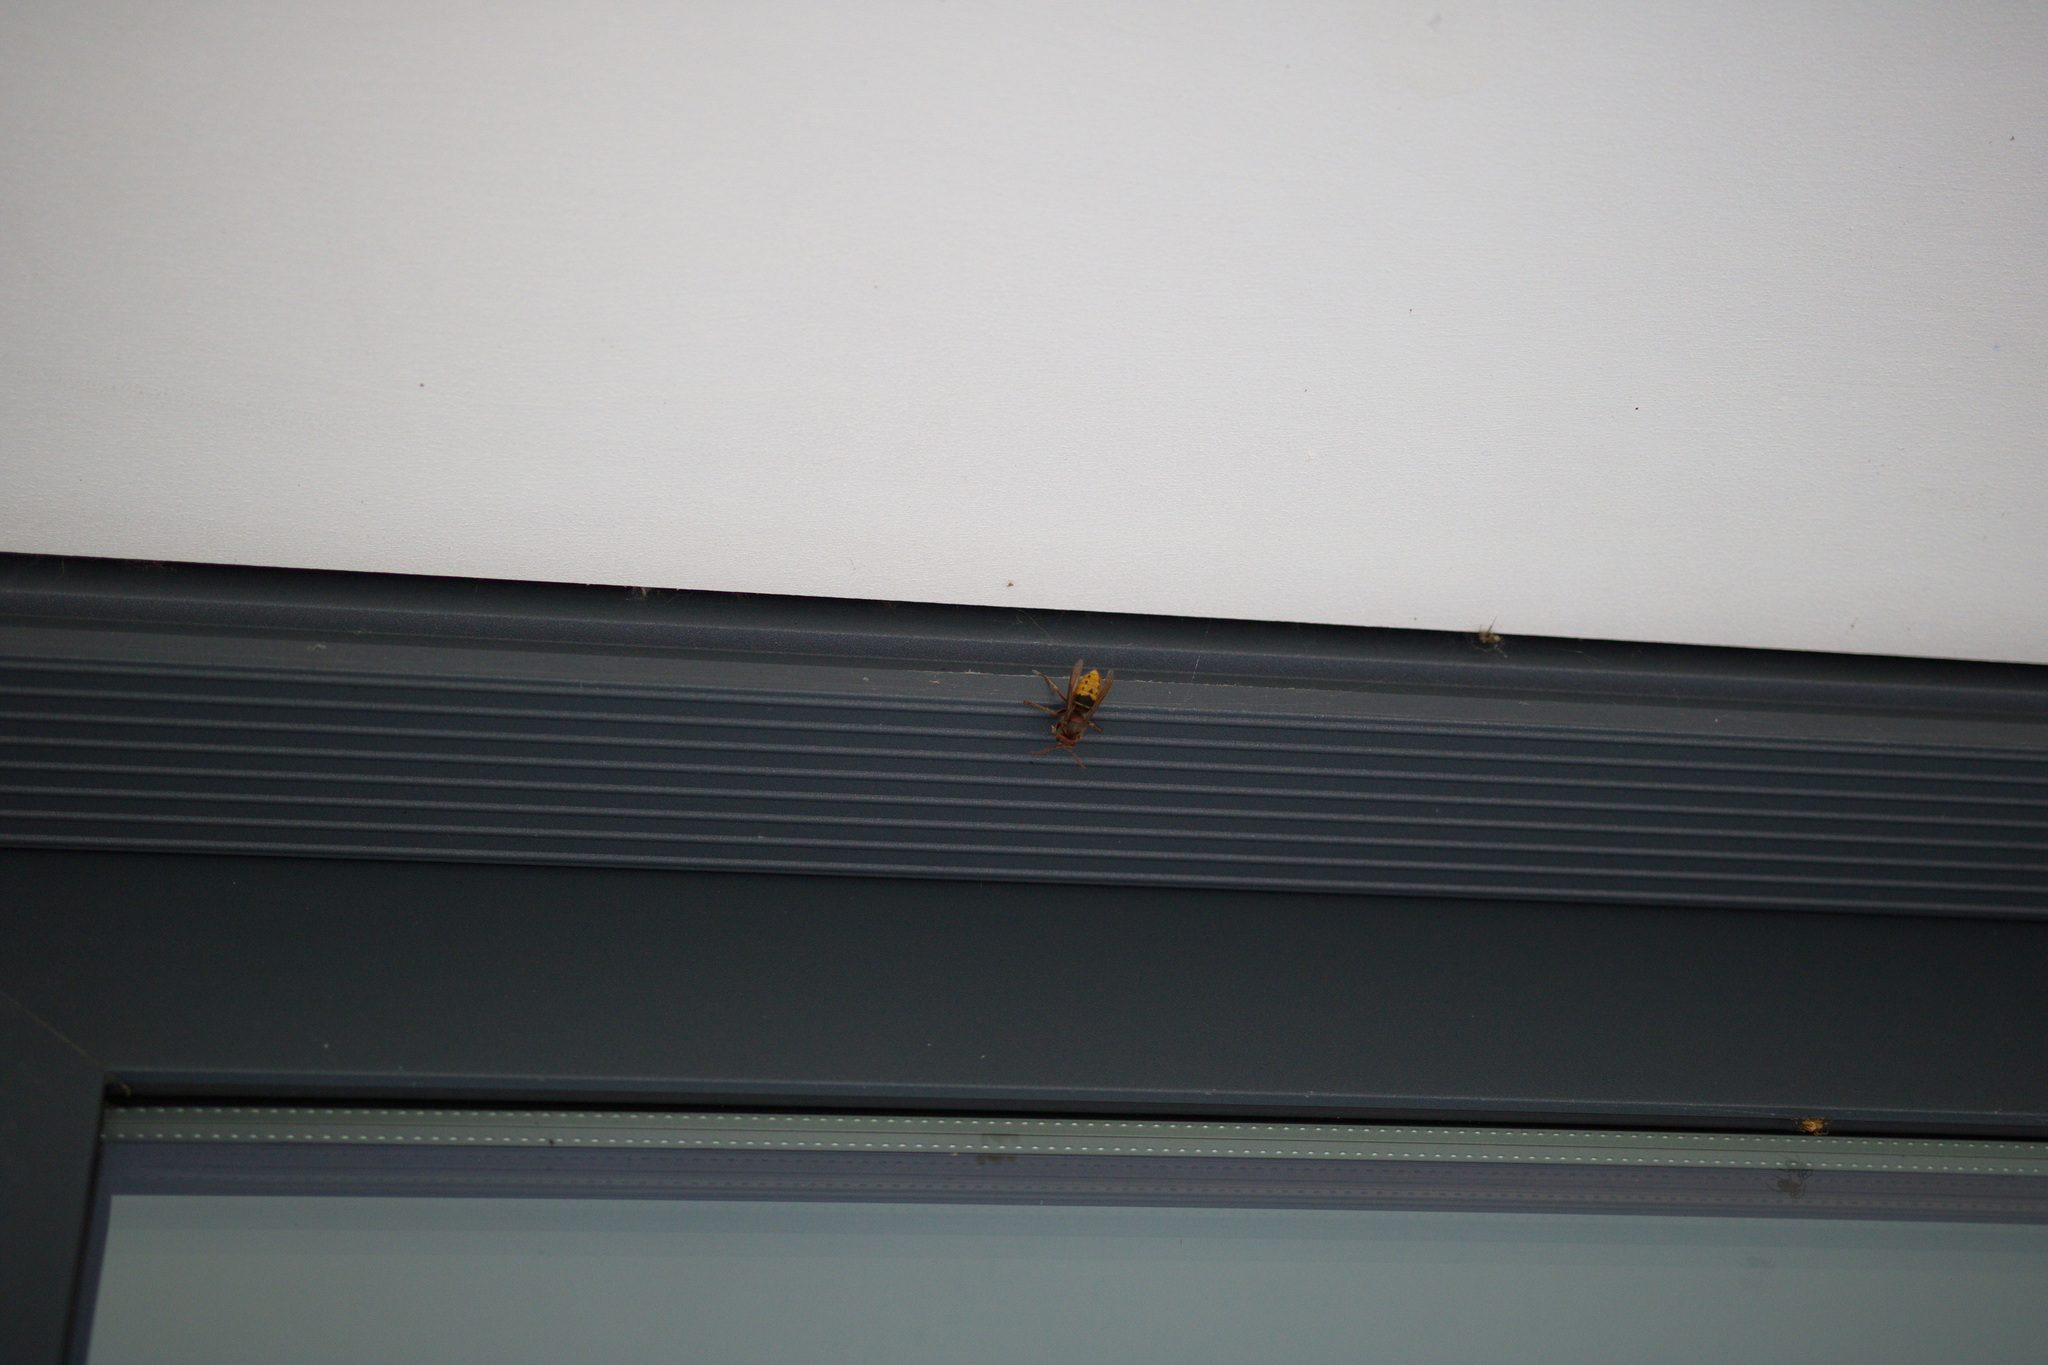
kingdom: Animalia
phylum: Arthropoda
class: Insecta
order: Hymenoptera
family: Vespidae
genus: Vespa
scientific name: Vespa crabro
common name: Hornet
